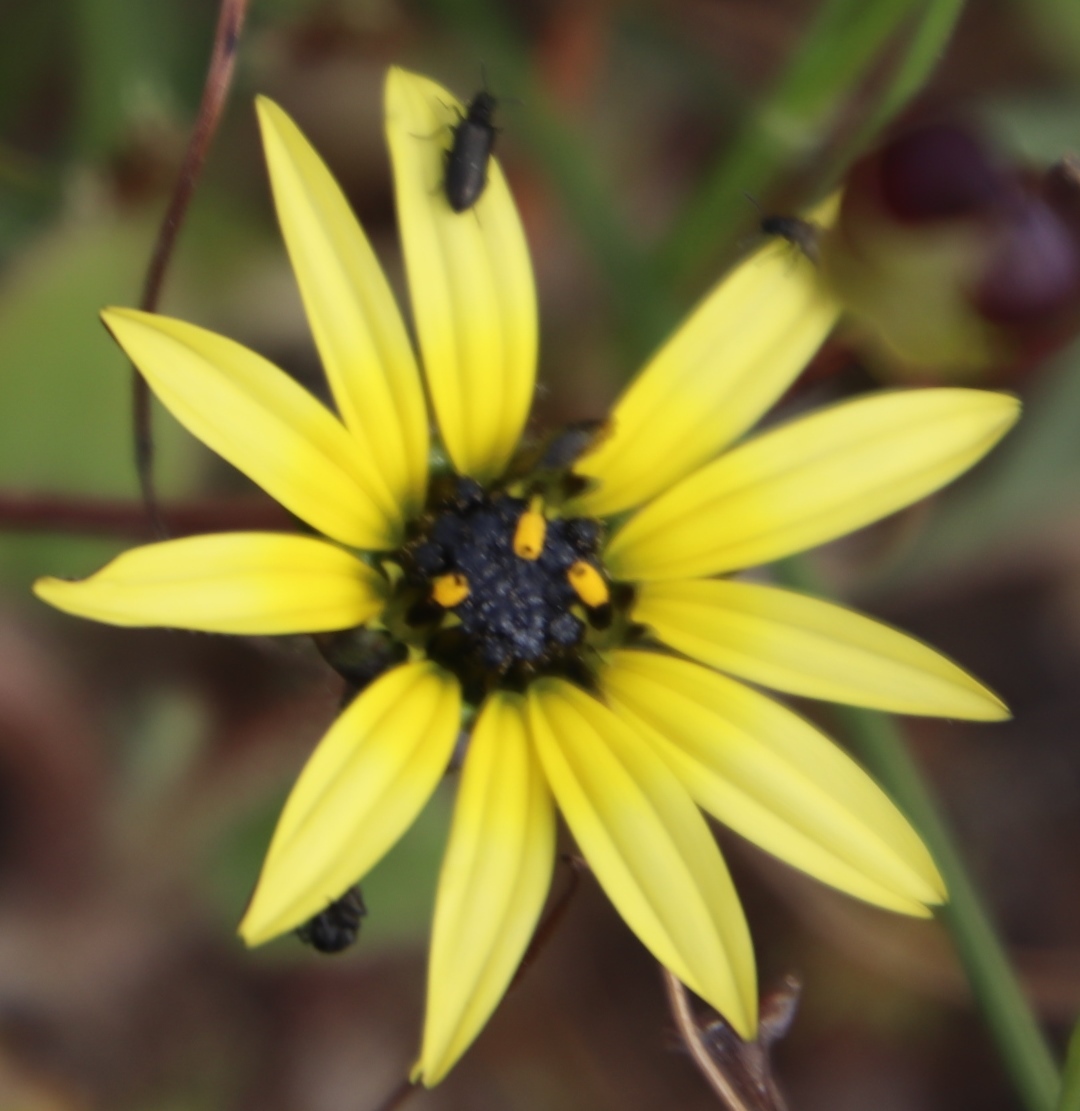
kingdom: Plantae
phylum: Tracheophyta
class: Magnoliopsida
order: Asterales
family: Asteraceae
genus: Arctotheca
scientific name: Arctotheca calendula
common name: Capeweed
